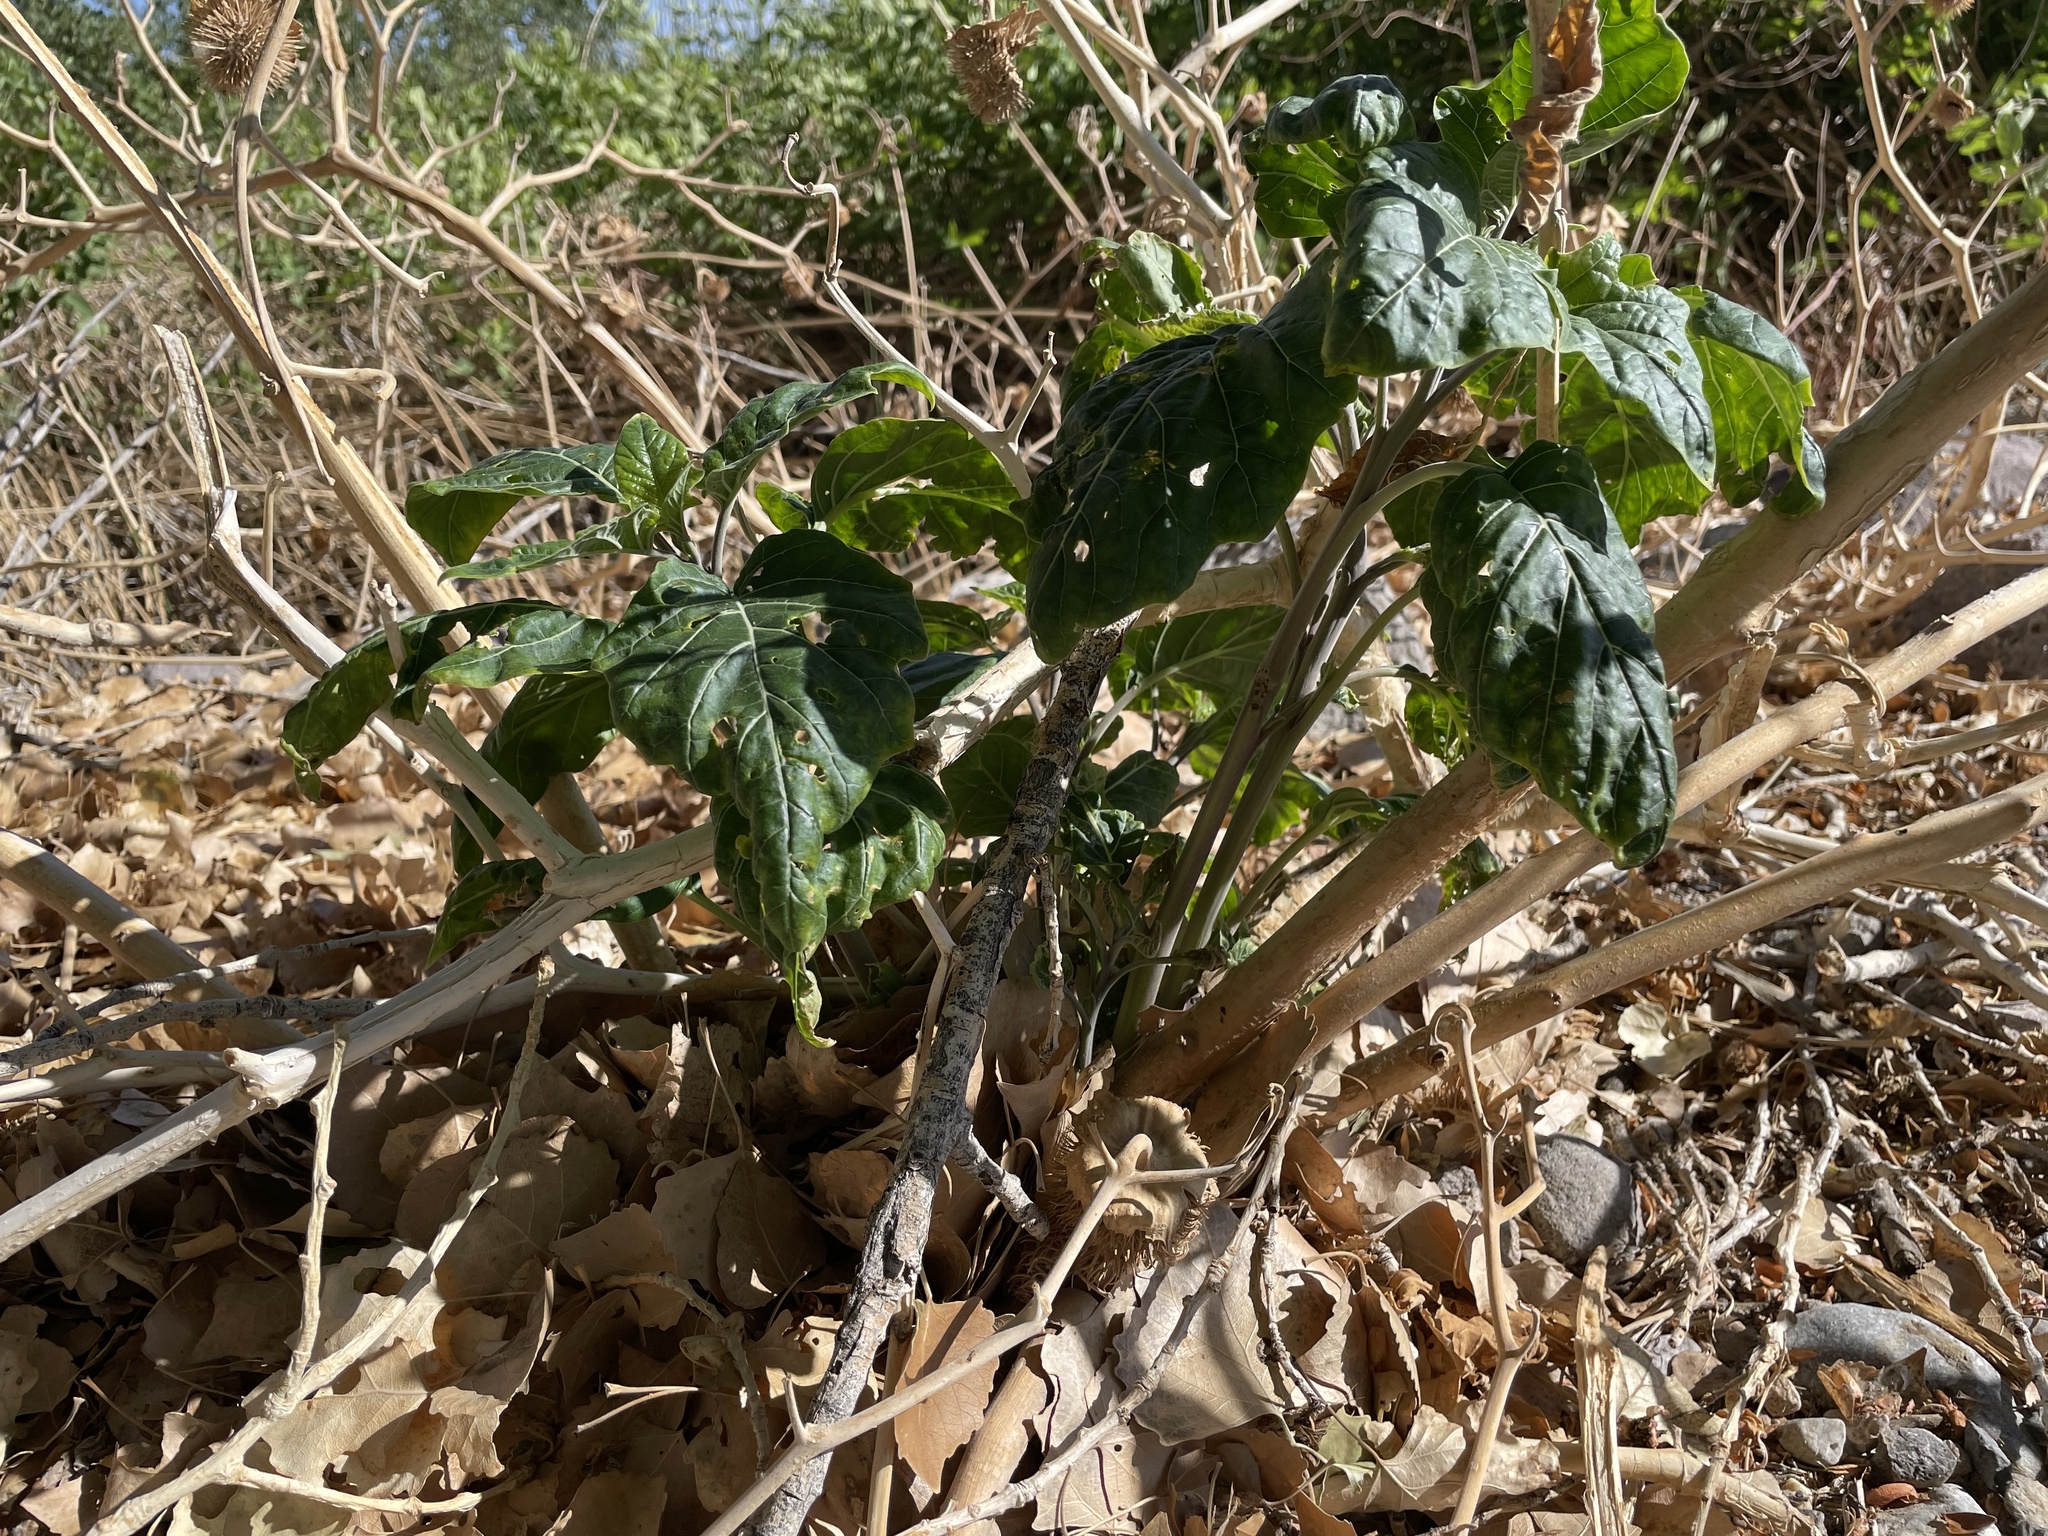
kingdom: Plantae
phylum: Tracheophyta
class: Magnoliopsida
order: Solanales
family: Solanaceae
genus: Datura
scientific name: Datura wrightii
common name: Sacred thorn-apple
